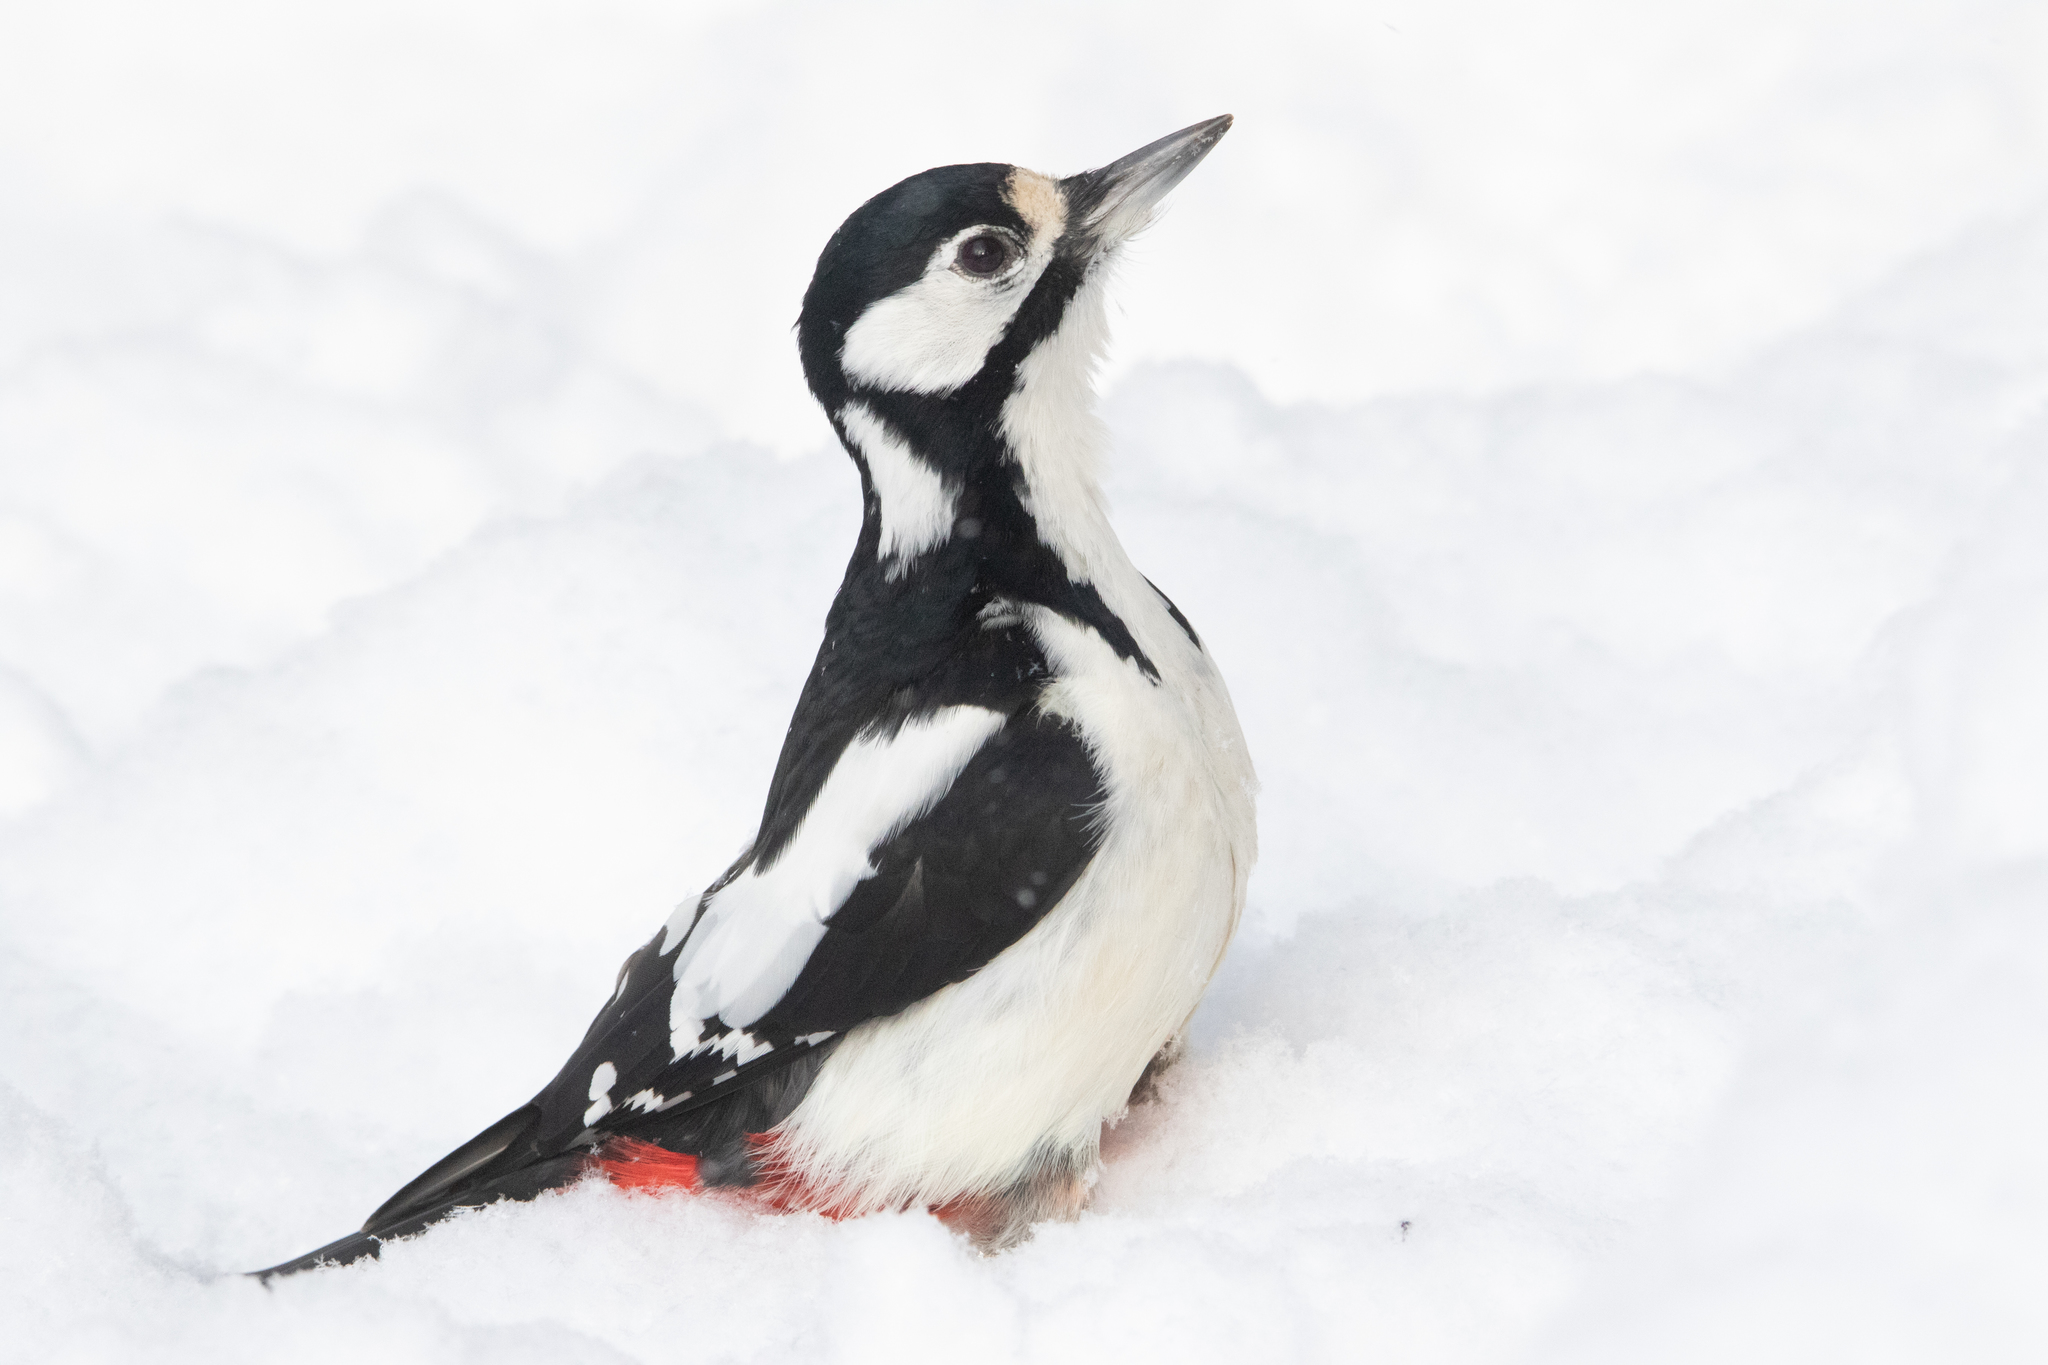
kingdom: Animalia
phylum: Chordata
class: Aves
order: Piciformes
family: Picidae
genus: Dendrocopos
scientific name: Dendrocopos major
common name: Great spotted woodpecker
